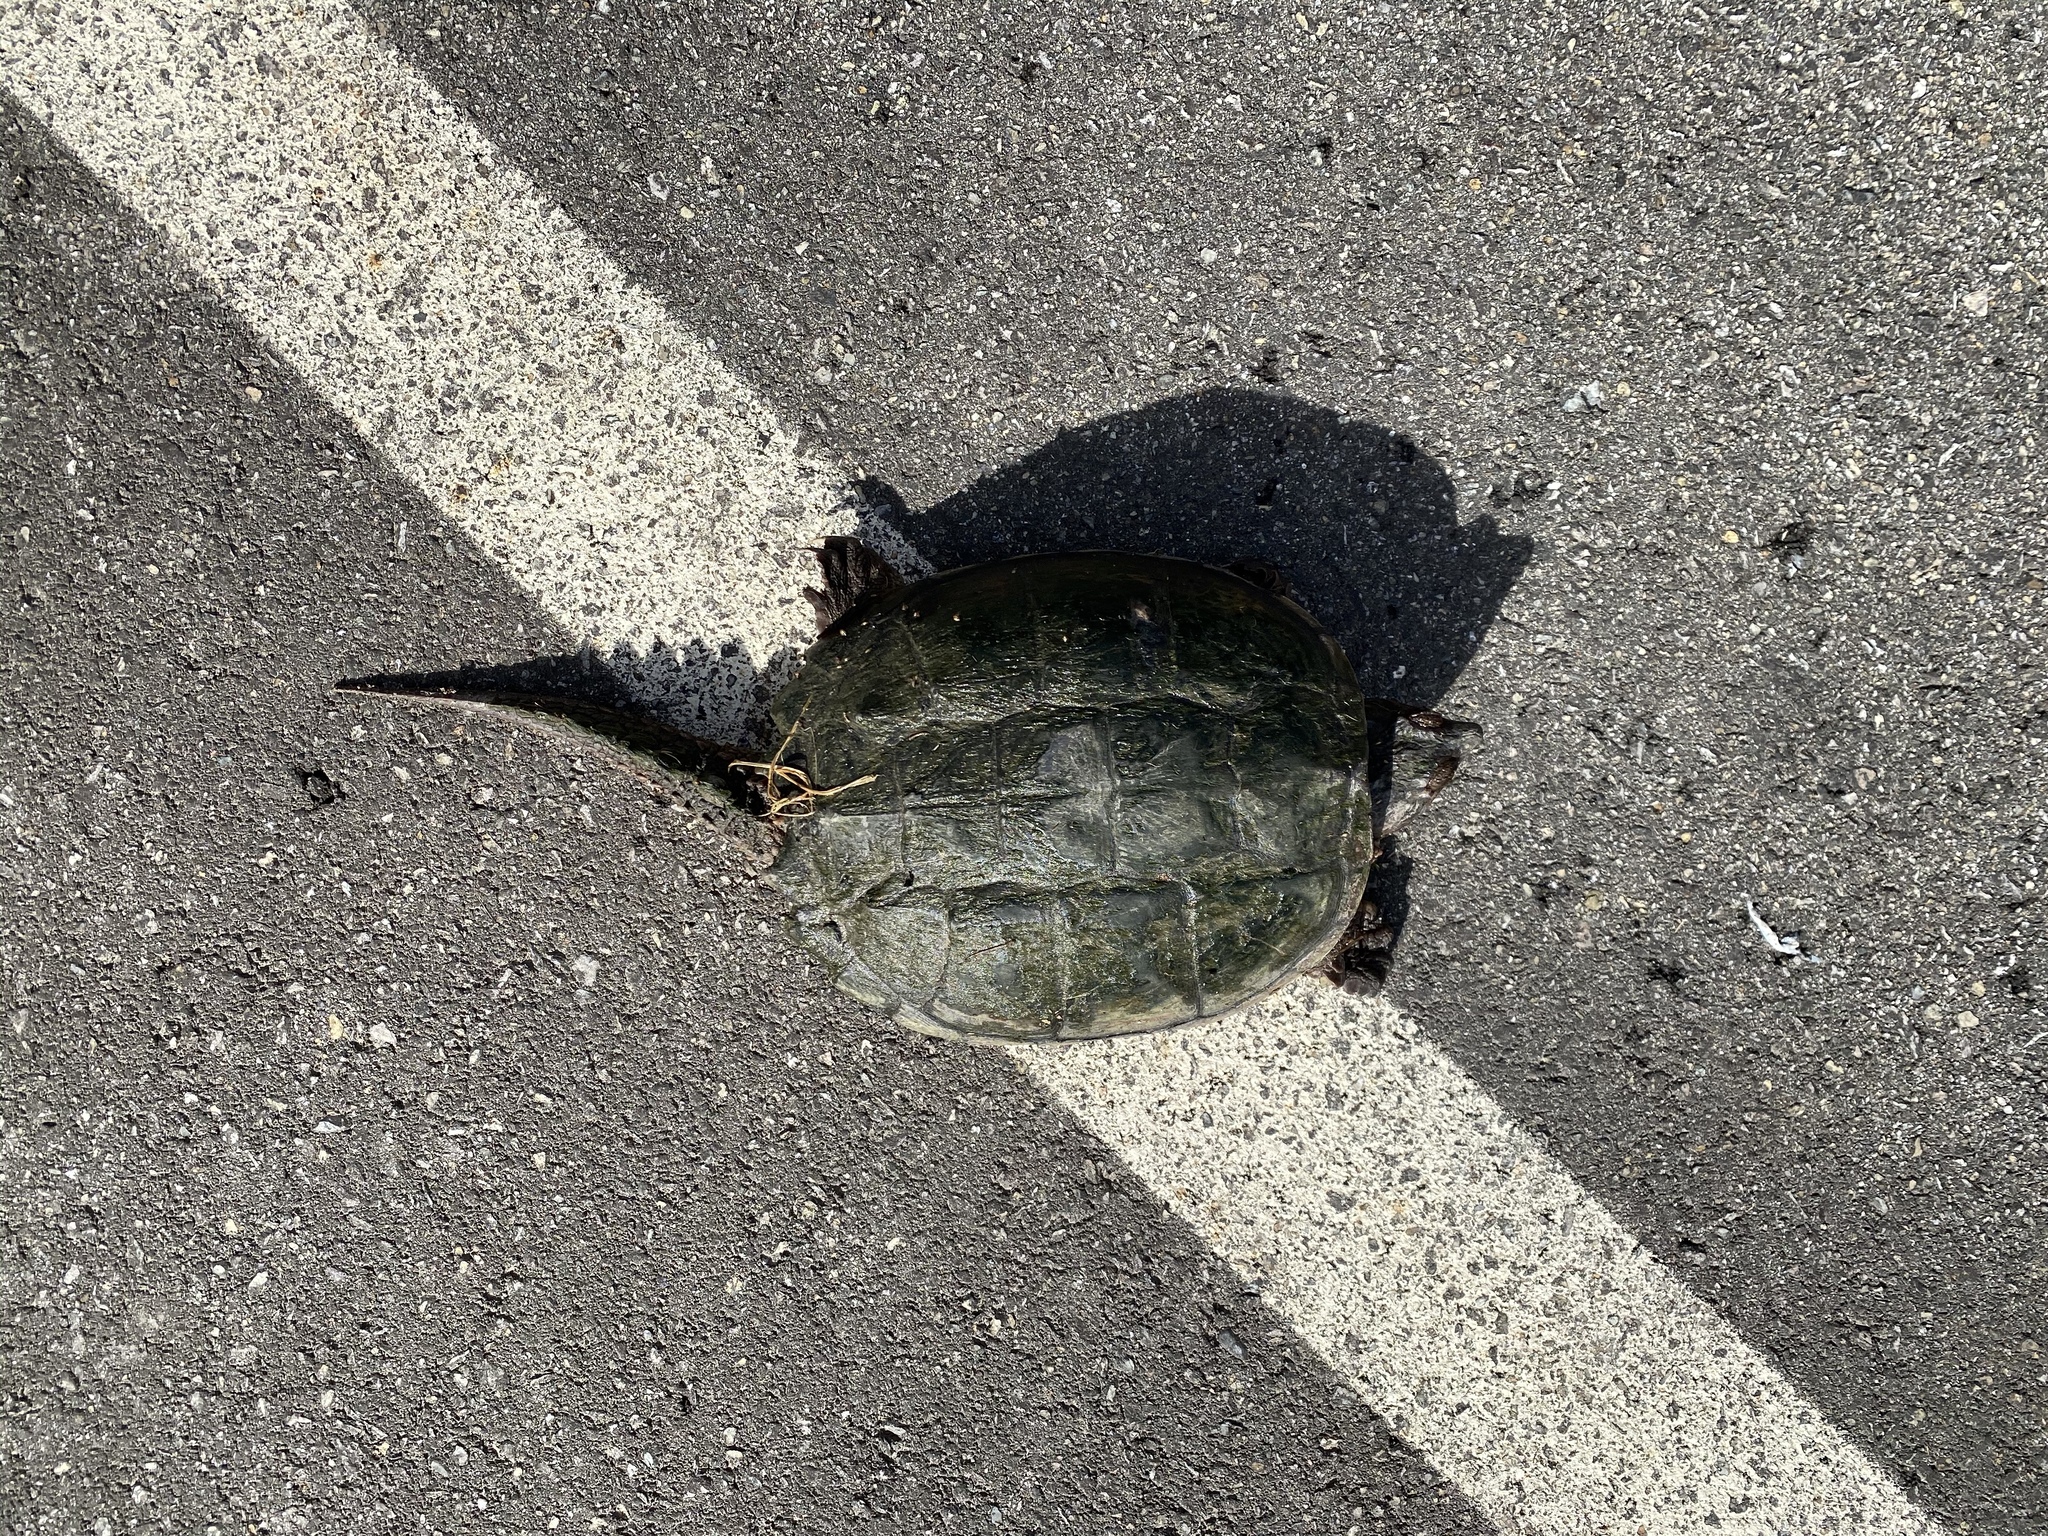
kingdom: Animalia
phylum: Chordata
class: Testudines
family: Chelydridae
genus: Chelydra
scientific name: Chelydra serpentina
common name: Common snapping turtle
